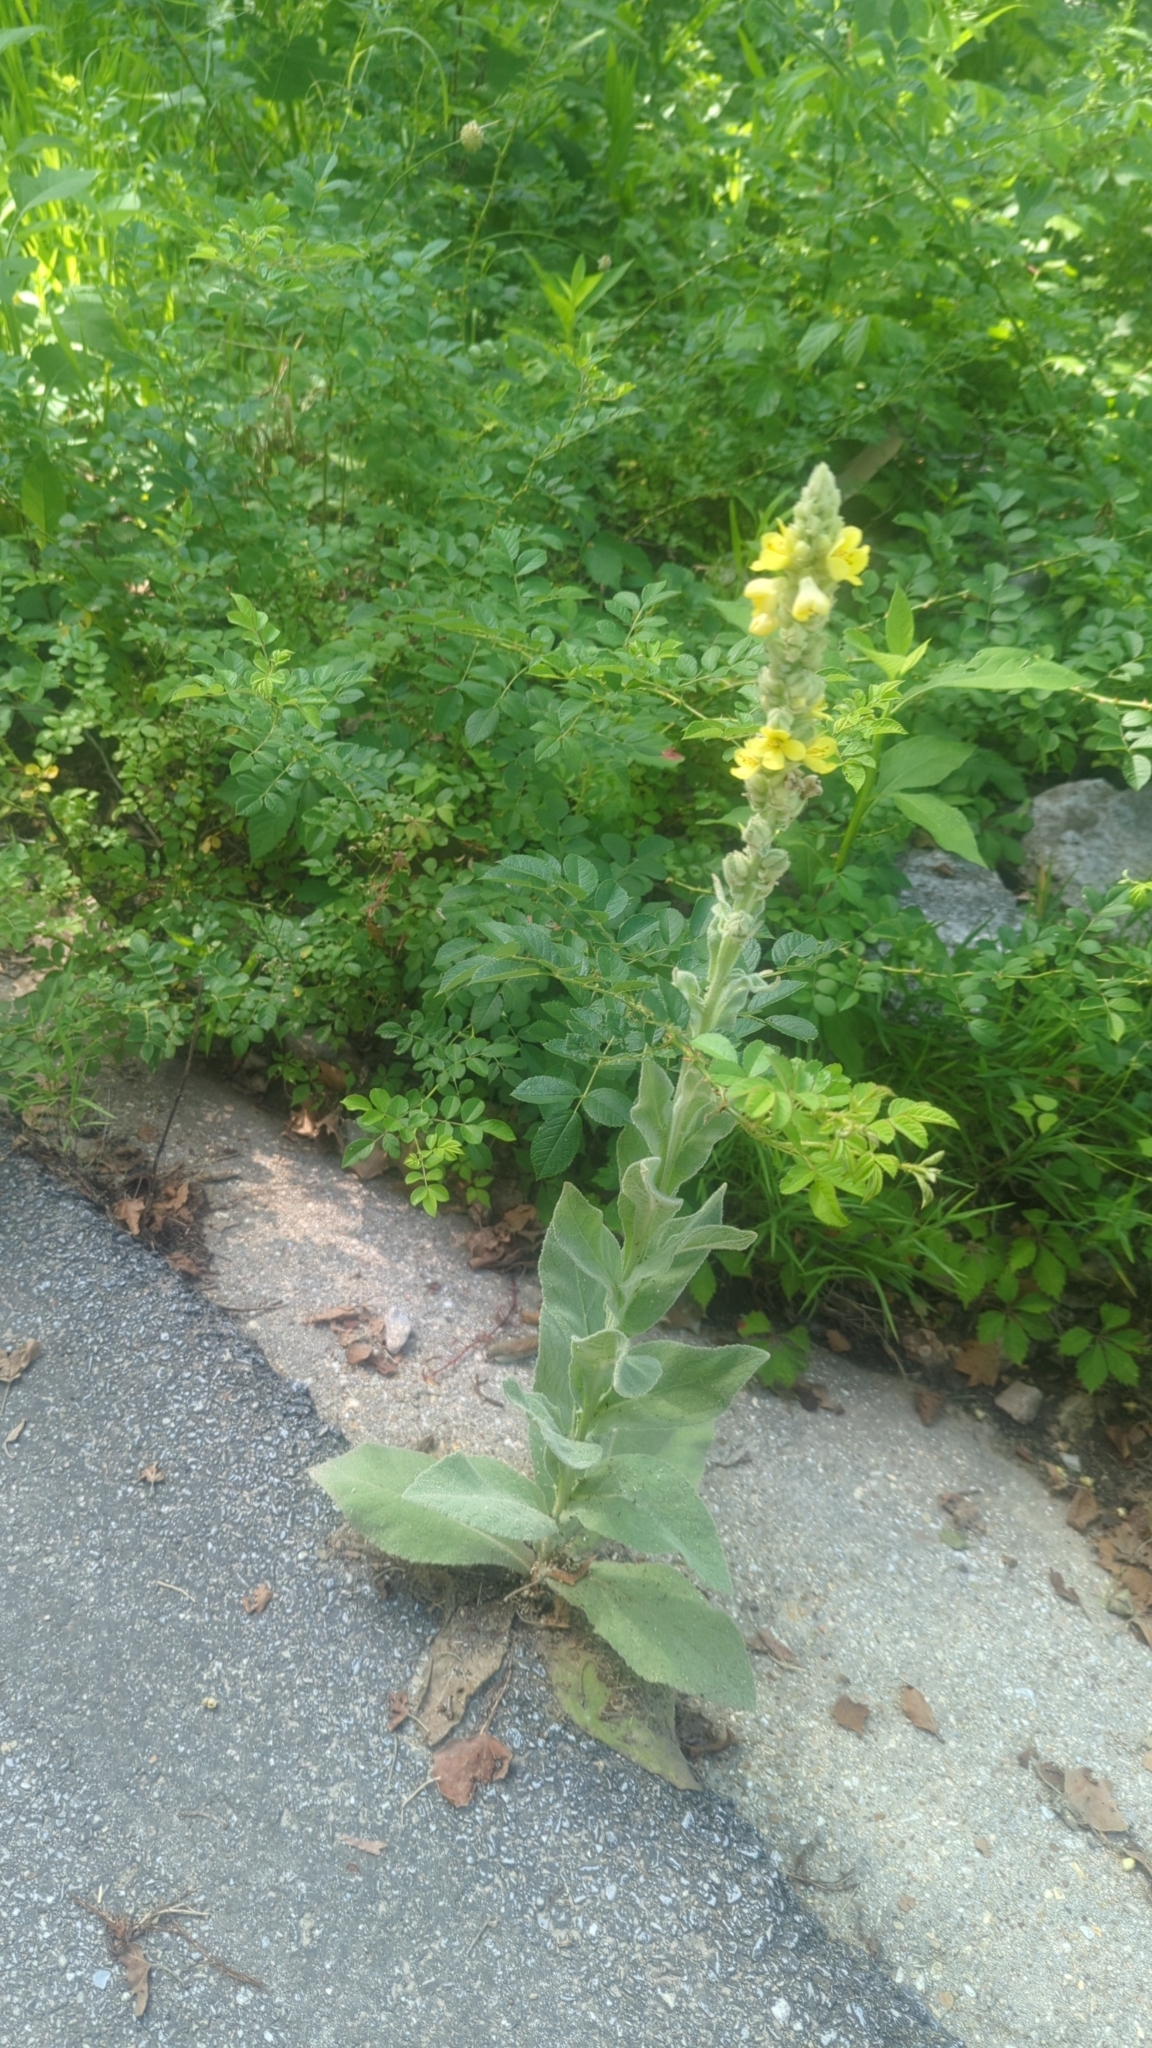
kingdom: Plantae
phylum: Tracheophyta
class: Magnoliopsida
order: Lamiales
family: Scrophulariaceae
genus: Verbascum
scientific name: Verbascum thapsus
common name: Common mullein
